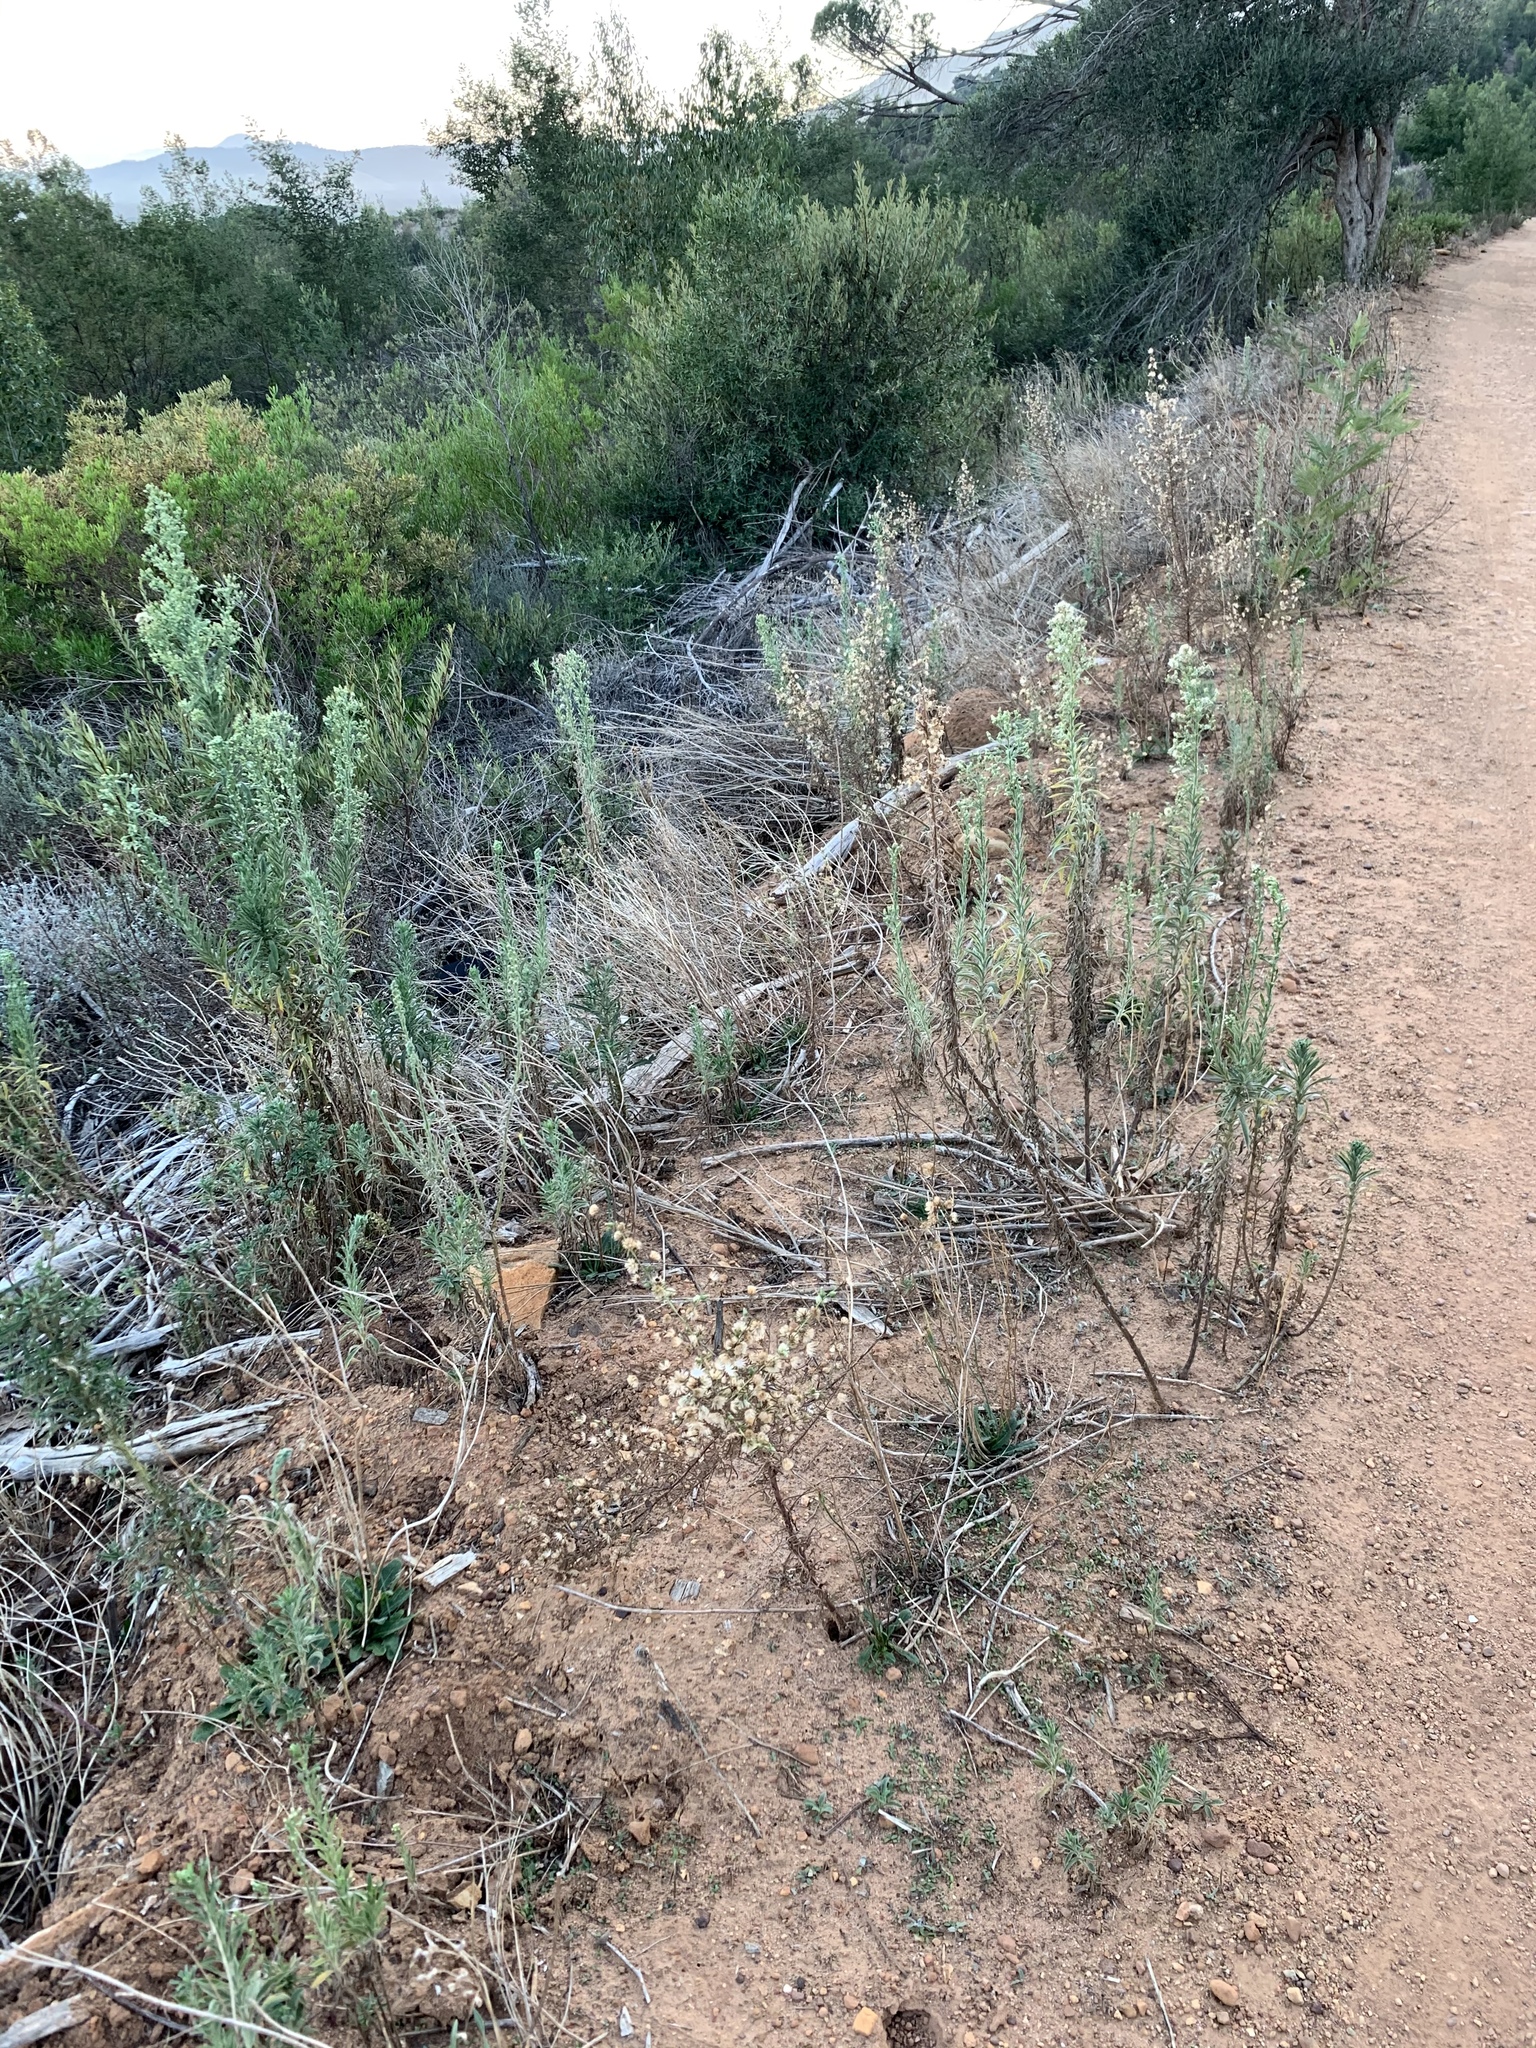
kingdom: Plantae
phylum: Tracheophyta
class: Magnoliopsida
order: Asterales
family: Asteraceae
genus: Erigeron
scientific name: Erigeron sumatrensis
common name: Daisy
